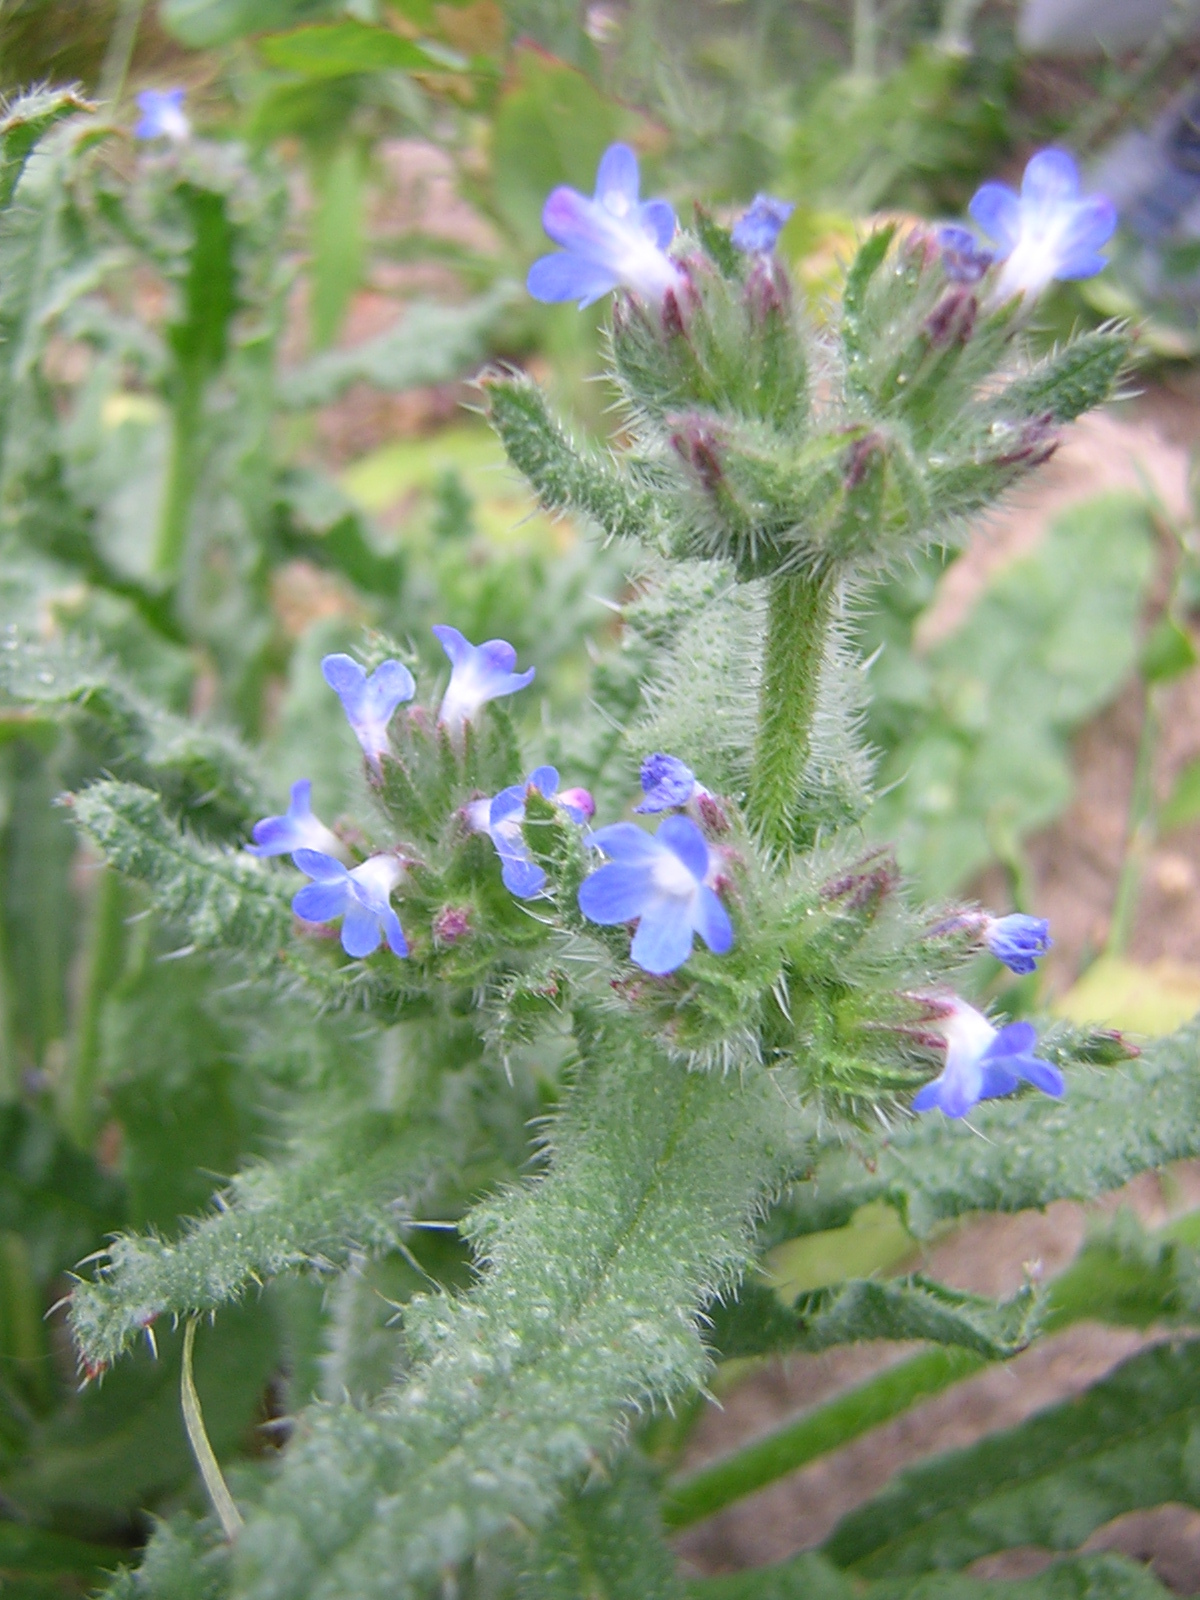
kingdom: Plantae
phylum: Tracheophyta
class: Magnoliopsida
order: Boraginales
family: Boraginaceae
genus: Lycopsis
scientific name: Lycopsis arvensis
